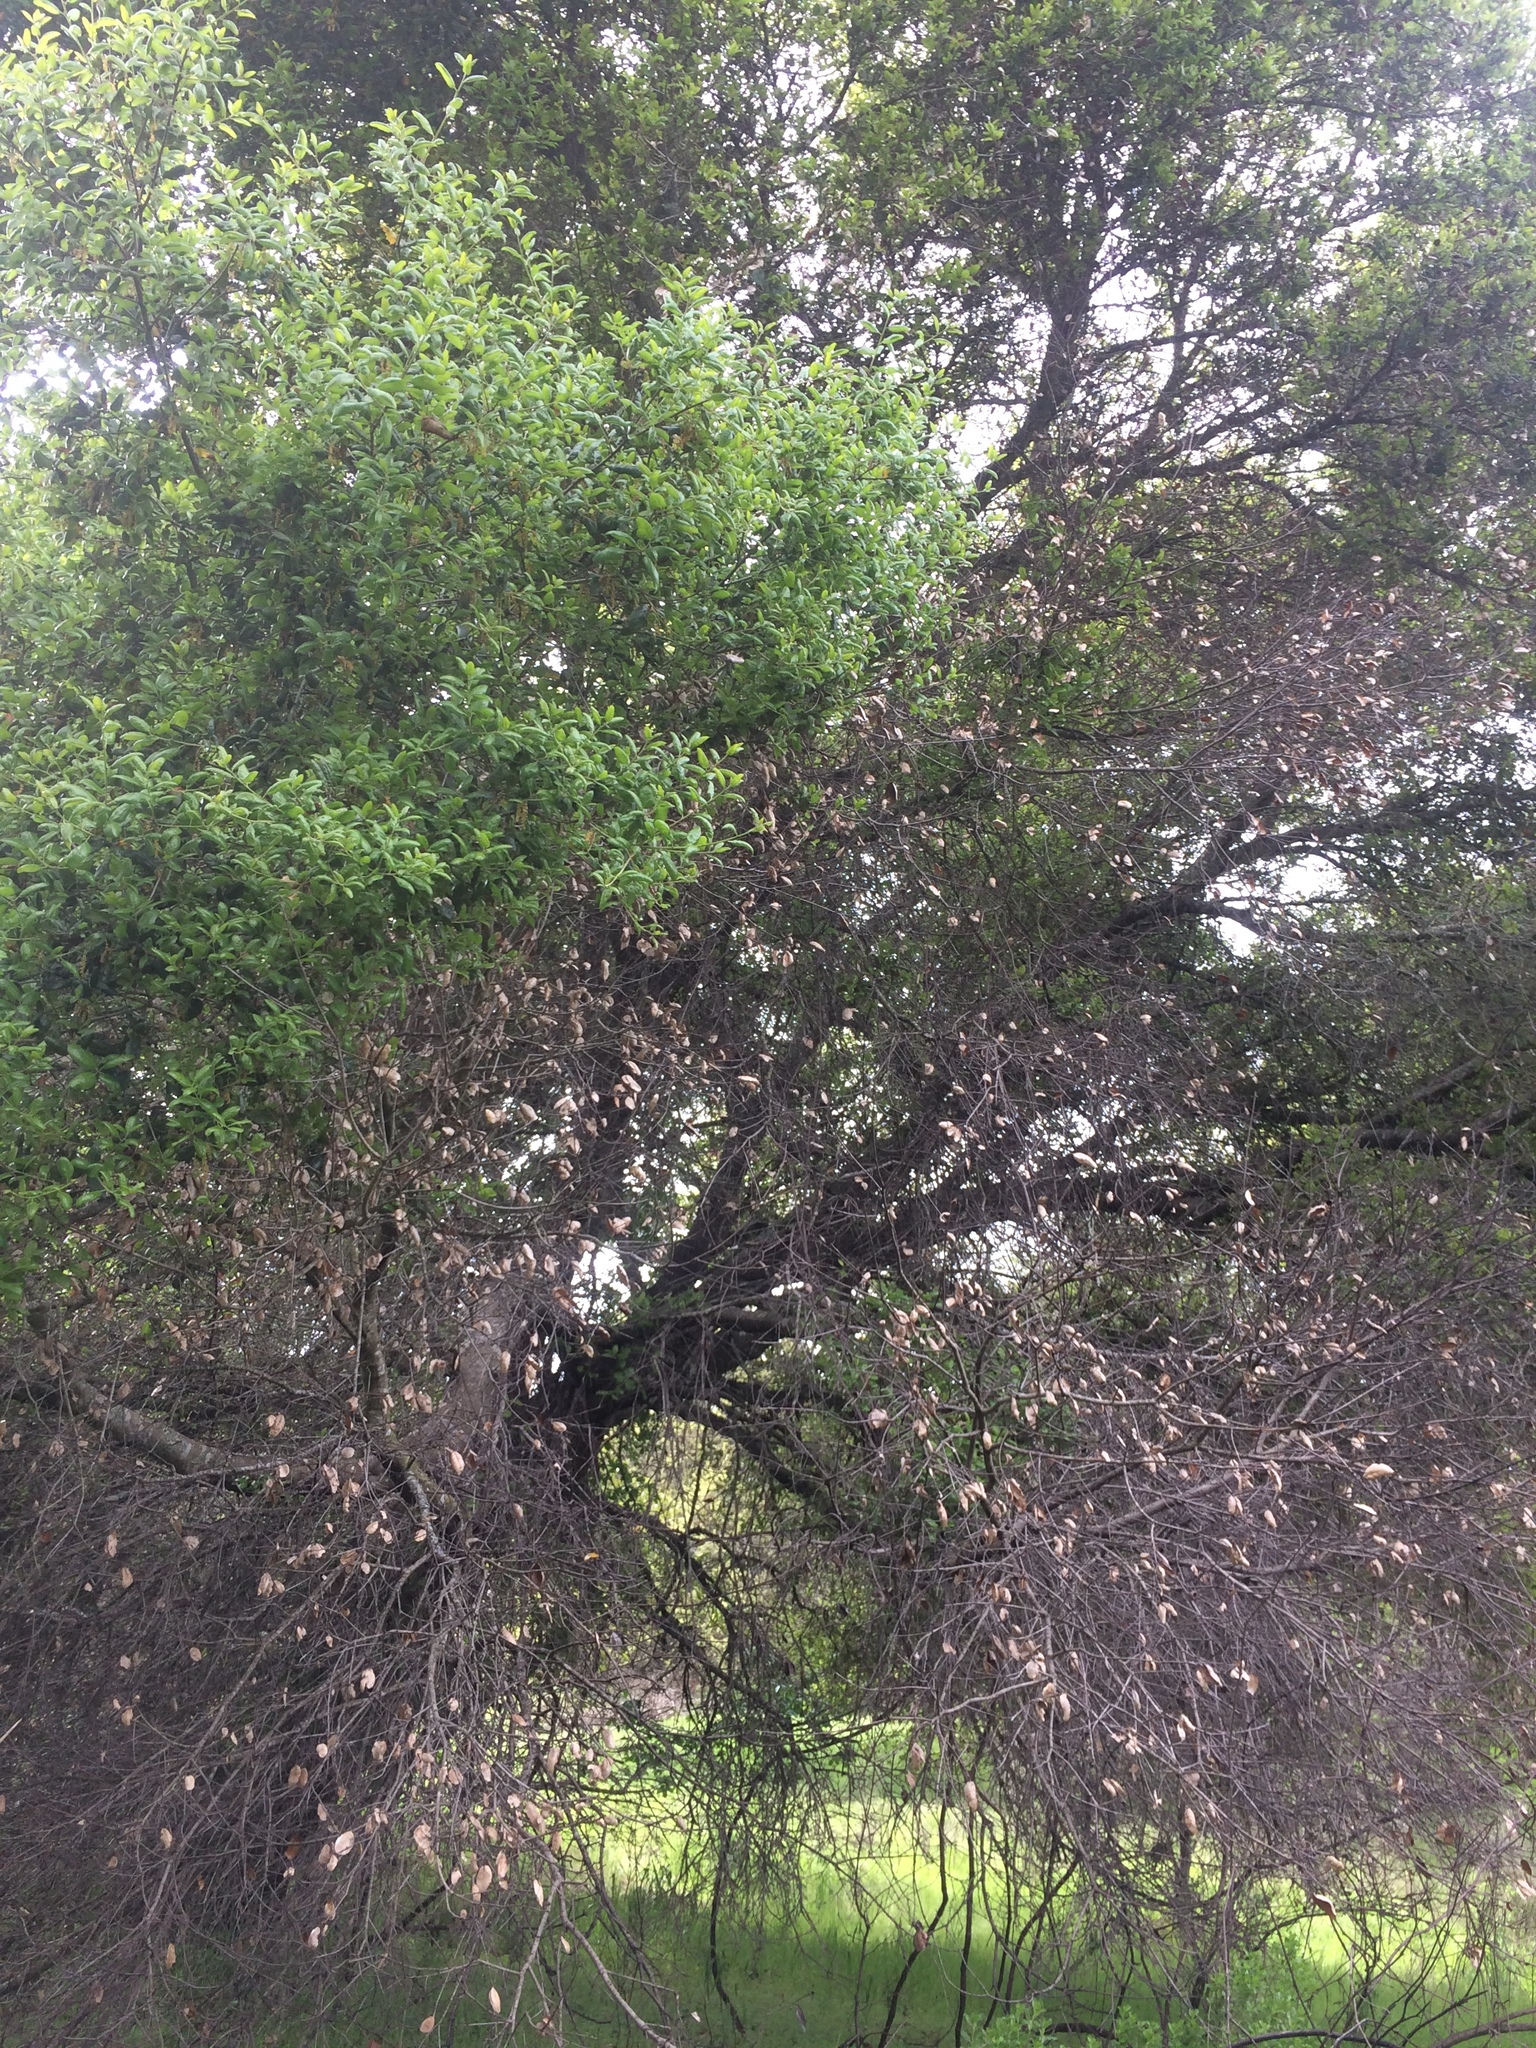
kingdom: Plantae
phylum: Tracheophyta
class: Magnoliopsida
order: Fagales
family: Fagaceae
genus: Quercus
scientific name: Quercus agrifolia
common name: California live oak
